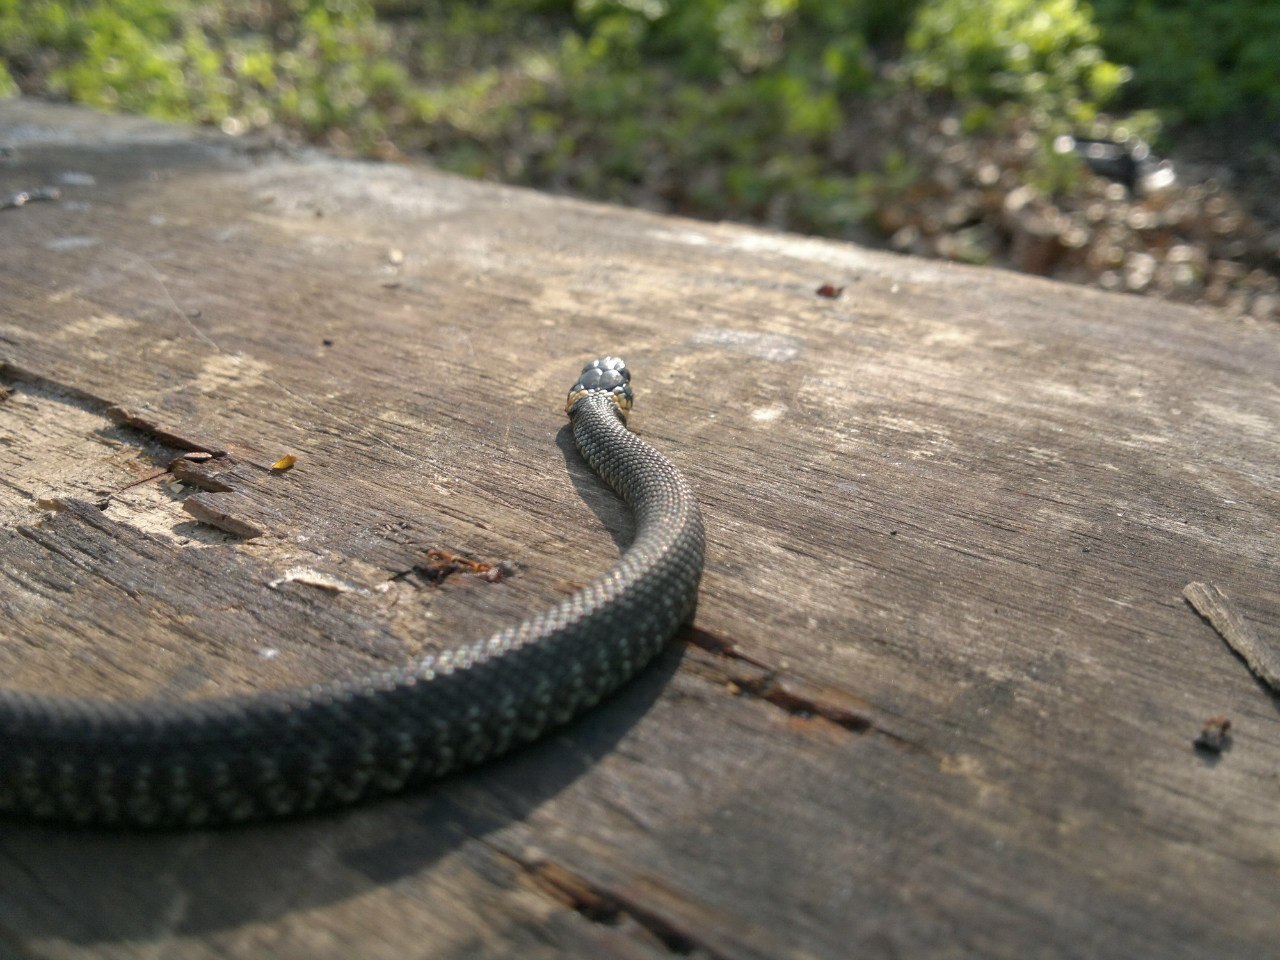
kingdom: Animalia
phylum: Chordata
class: Squamata
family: Colubridae
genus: Natrix
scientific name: Natrix natrix
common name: Grass snake
